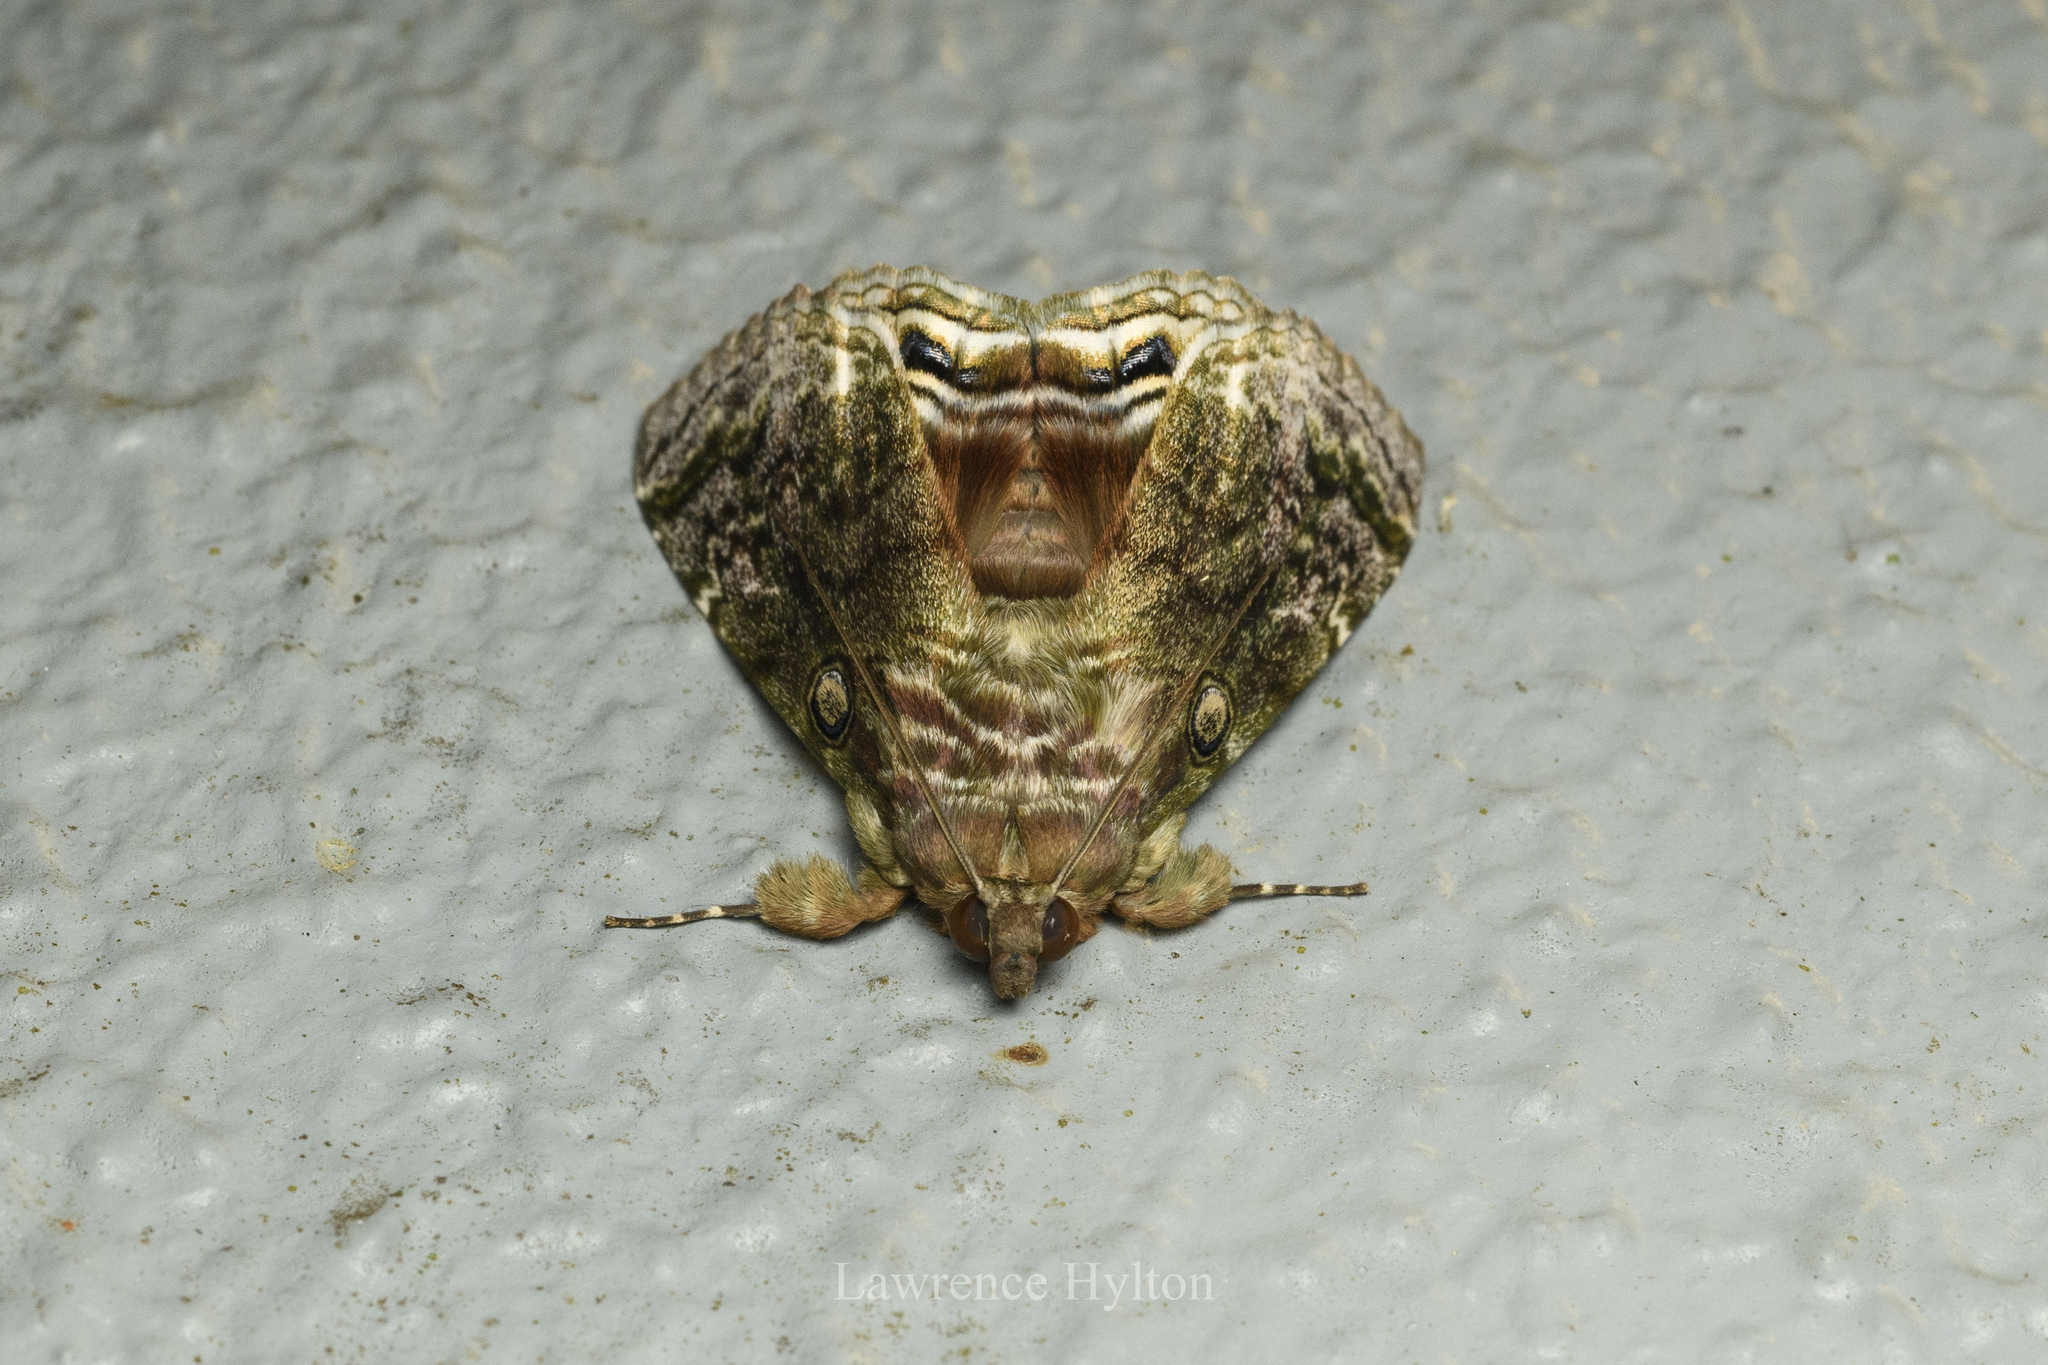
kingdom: Animalia
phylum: Arthropoda
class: Insecta
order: Lepidoptera
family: Erebidae
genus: Cyclodes
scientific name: Cyclodes omma
